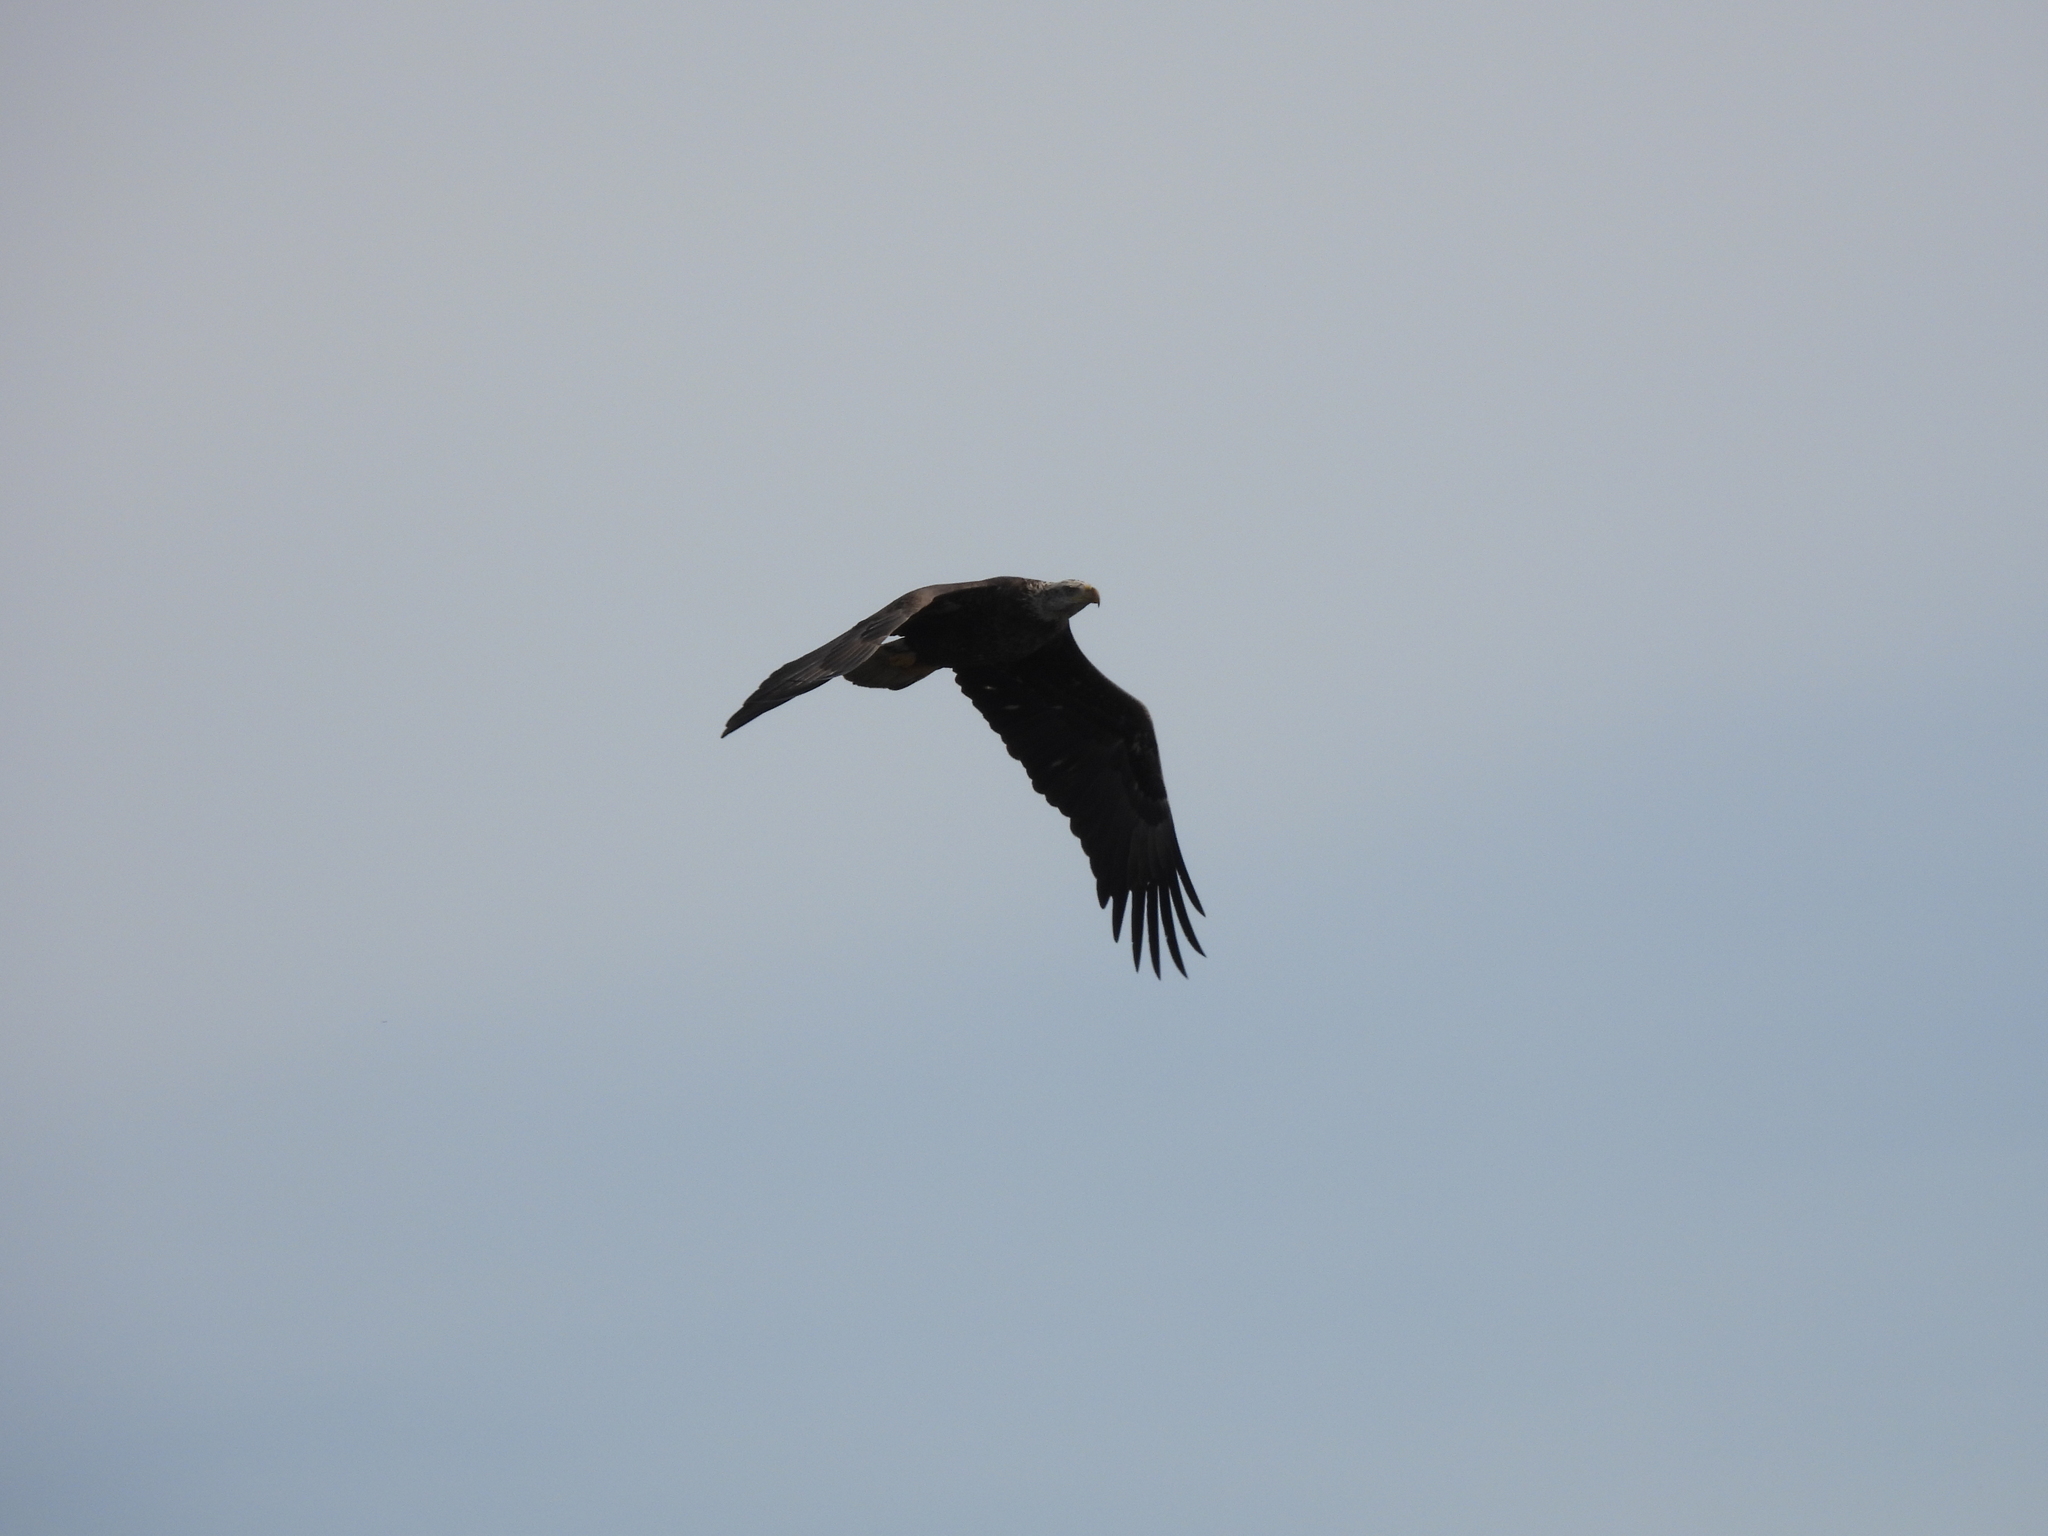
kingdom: Animalia
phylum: Chordata
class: Aves
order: Accipitriformes
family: Accipitridae
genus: Haliaeetus
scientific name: Haliaeetus leucocephalus
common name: Bald eagle
